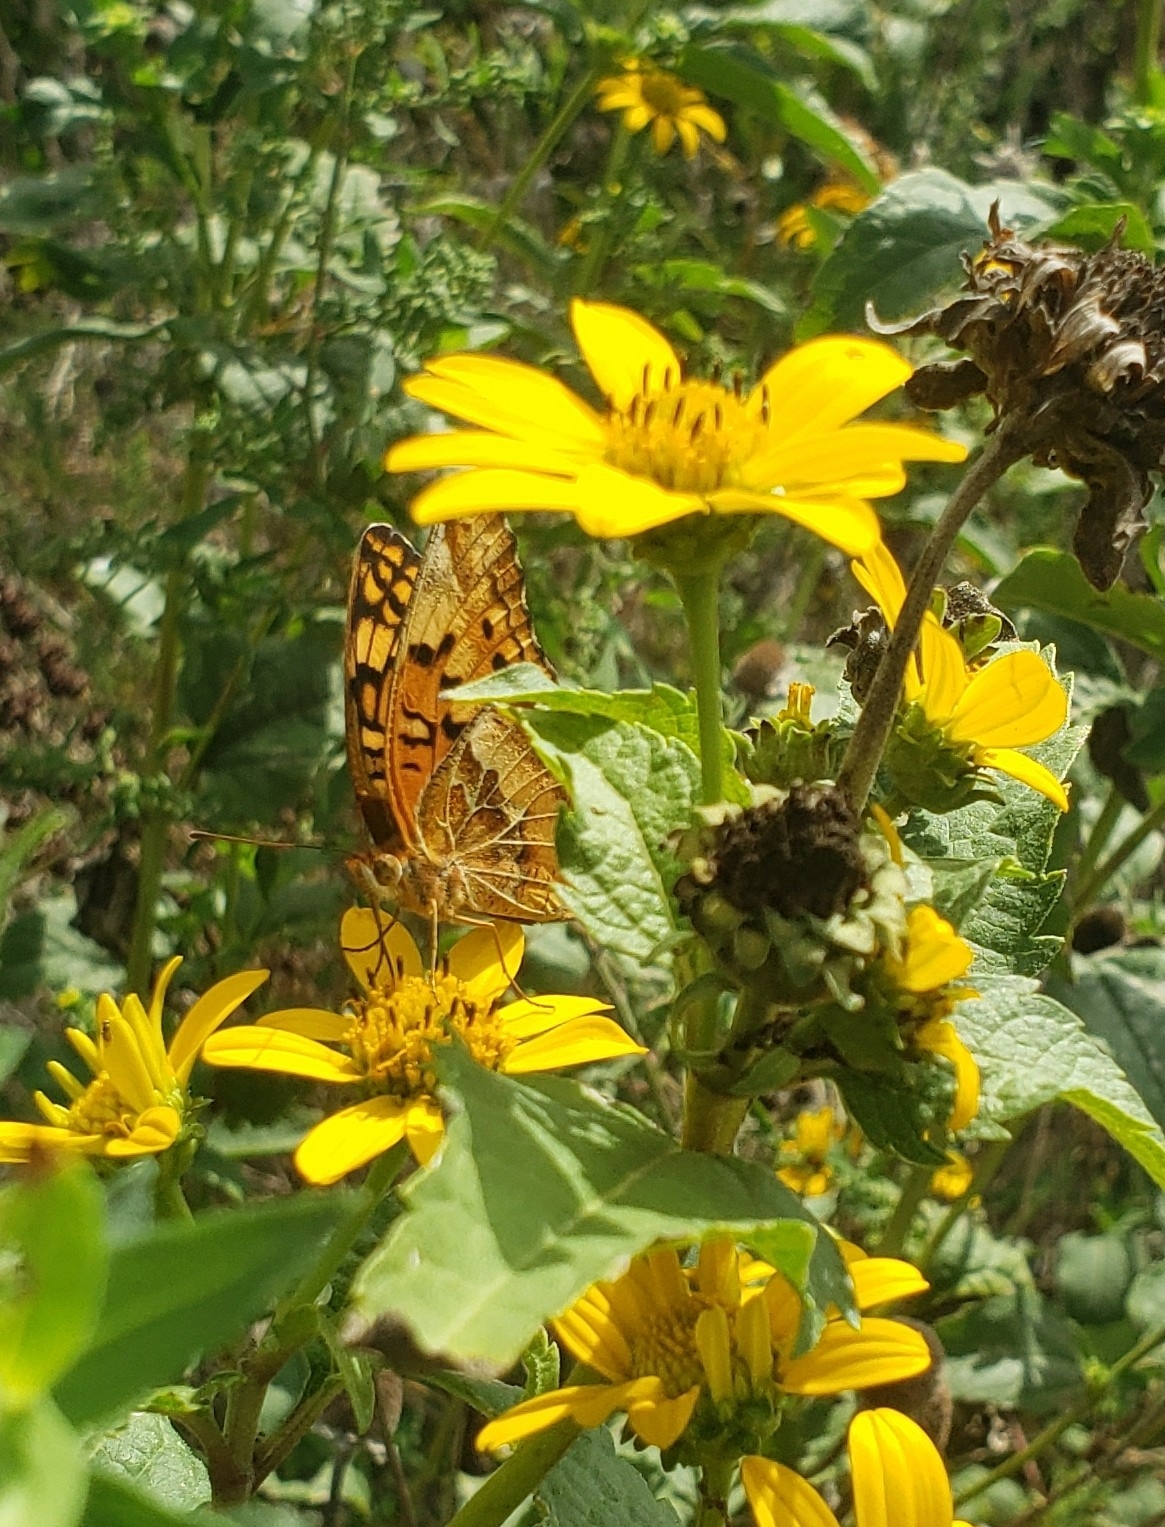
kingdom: Animalia
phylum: Arthropoda
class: Insecta
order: Lepidoptera
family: Nymphalidae
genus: Euptoieta
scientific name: Euptoieta claudia
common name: Variegated fritillary
